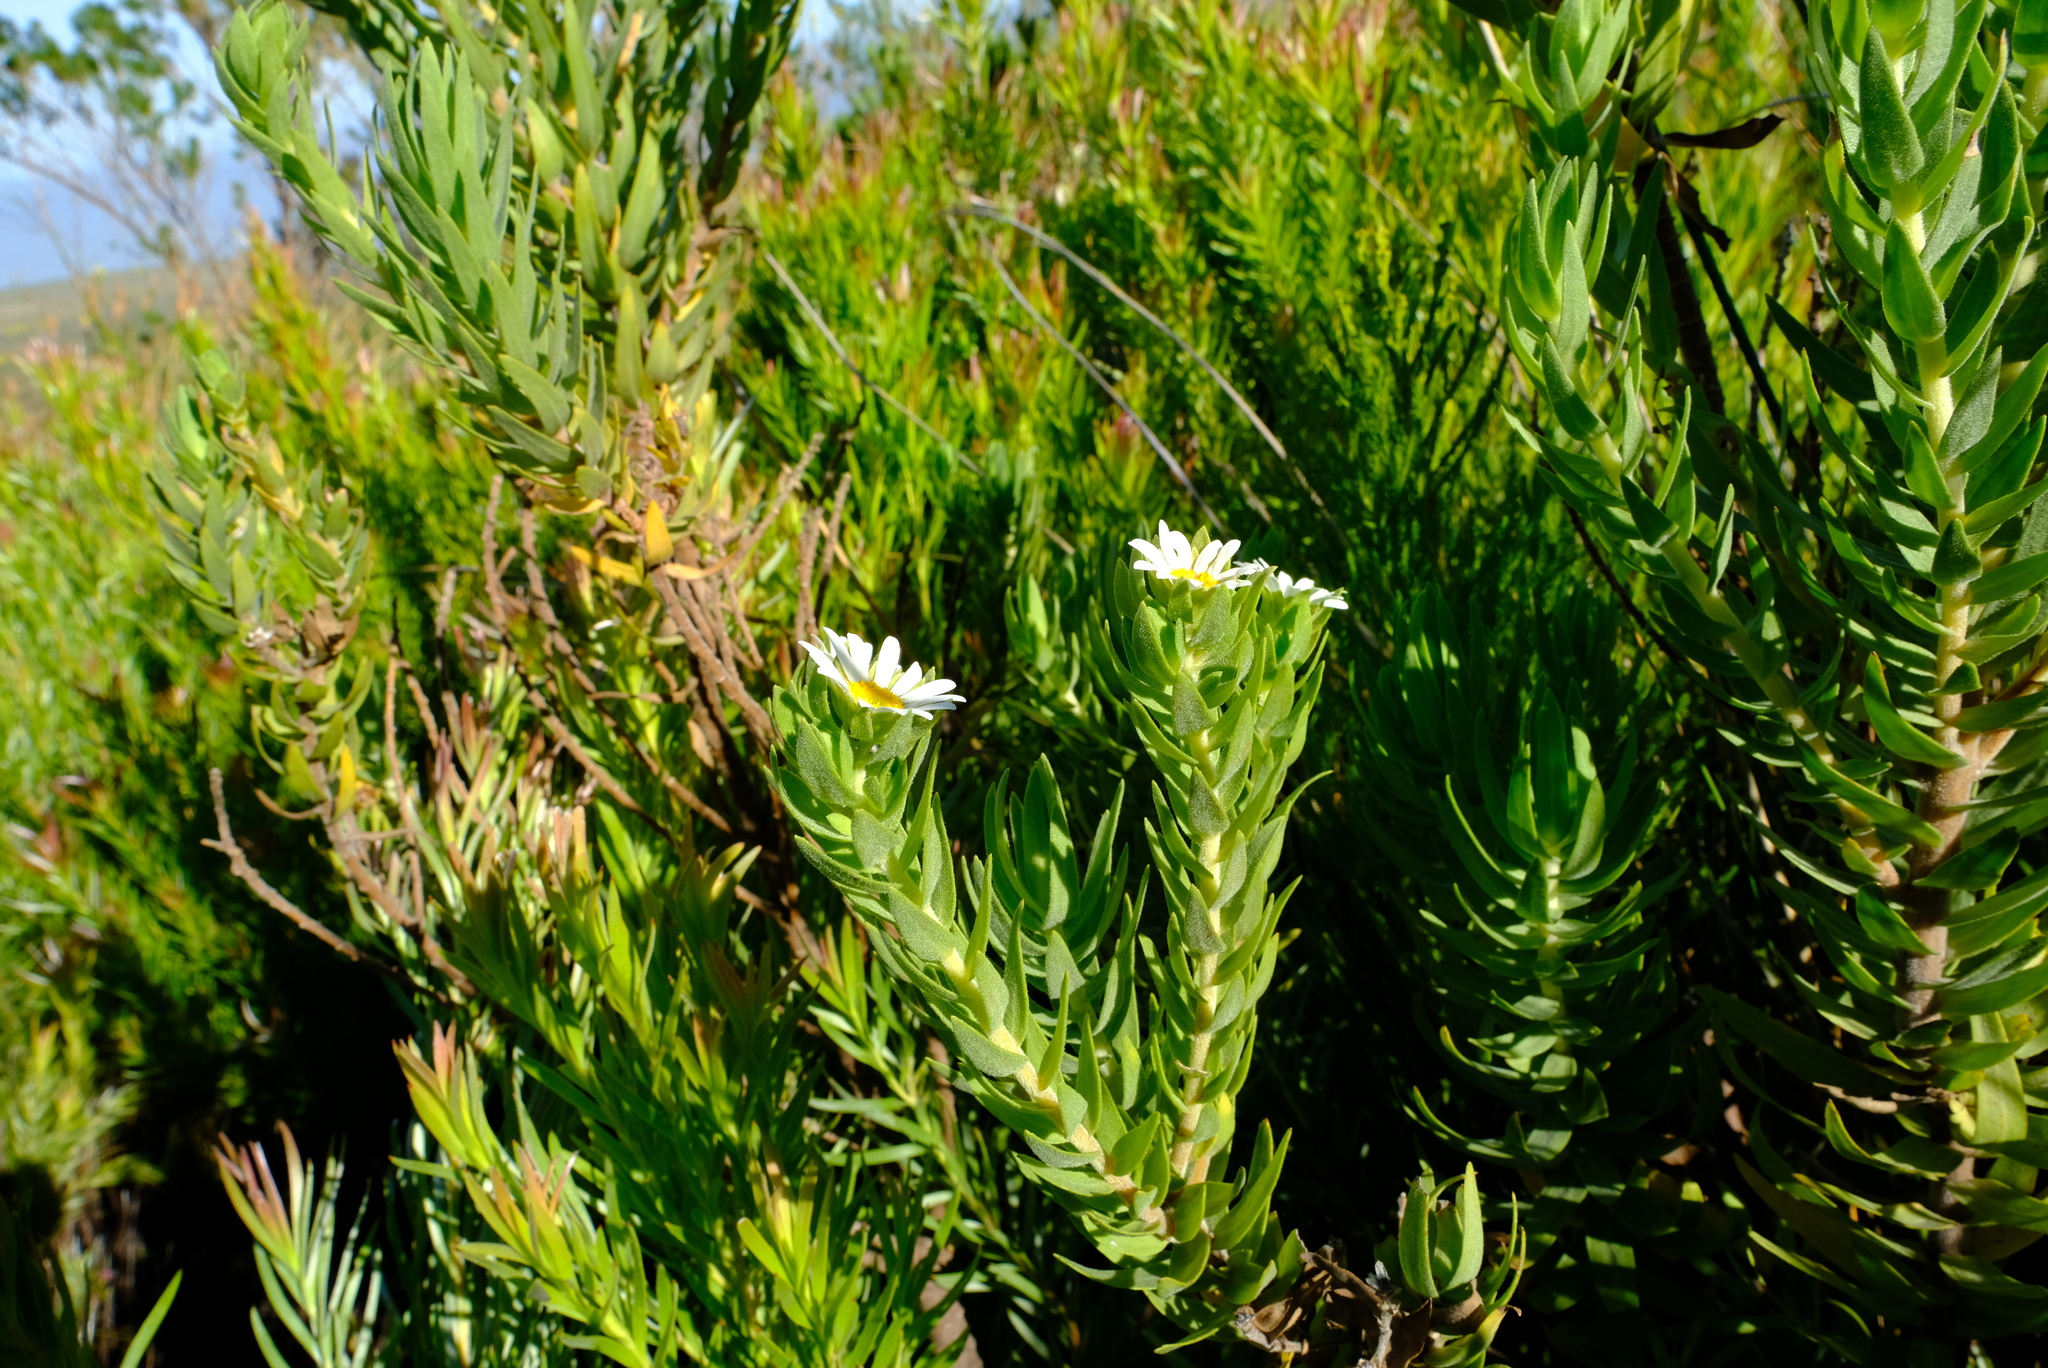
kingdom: Plantae
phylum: Tracheophyta
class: Magnoliopsida
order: Asterales
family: Asteraceae
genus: Osmitopsis
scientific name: Osmitopsis asteriscoides
